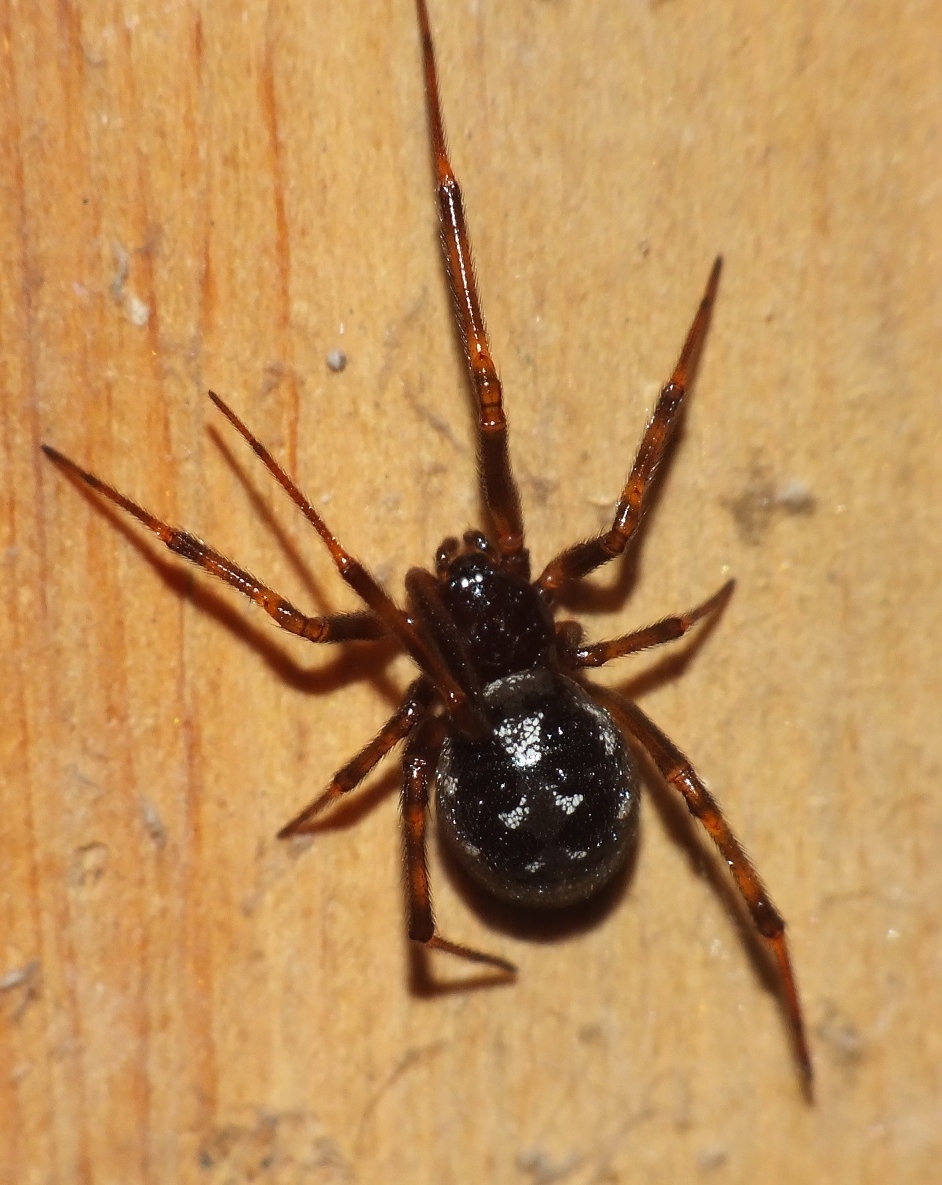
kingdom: Animalia
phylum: Arthropoda
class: Arachnida
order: Araneae
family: Theridiidae
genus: Steatoda
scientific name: Steatoda triangulosa
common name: Triangulate bud spider
